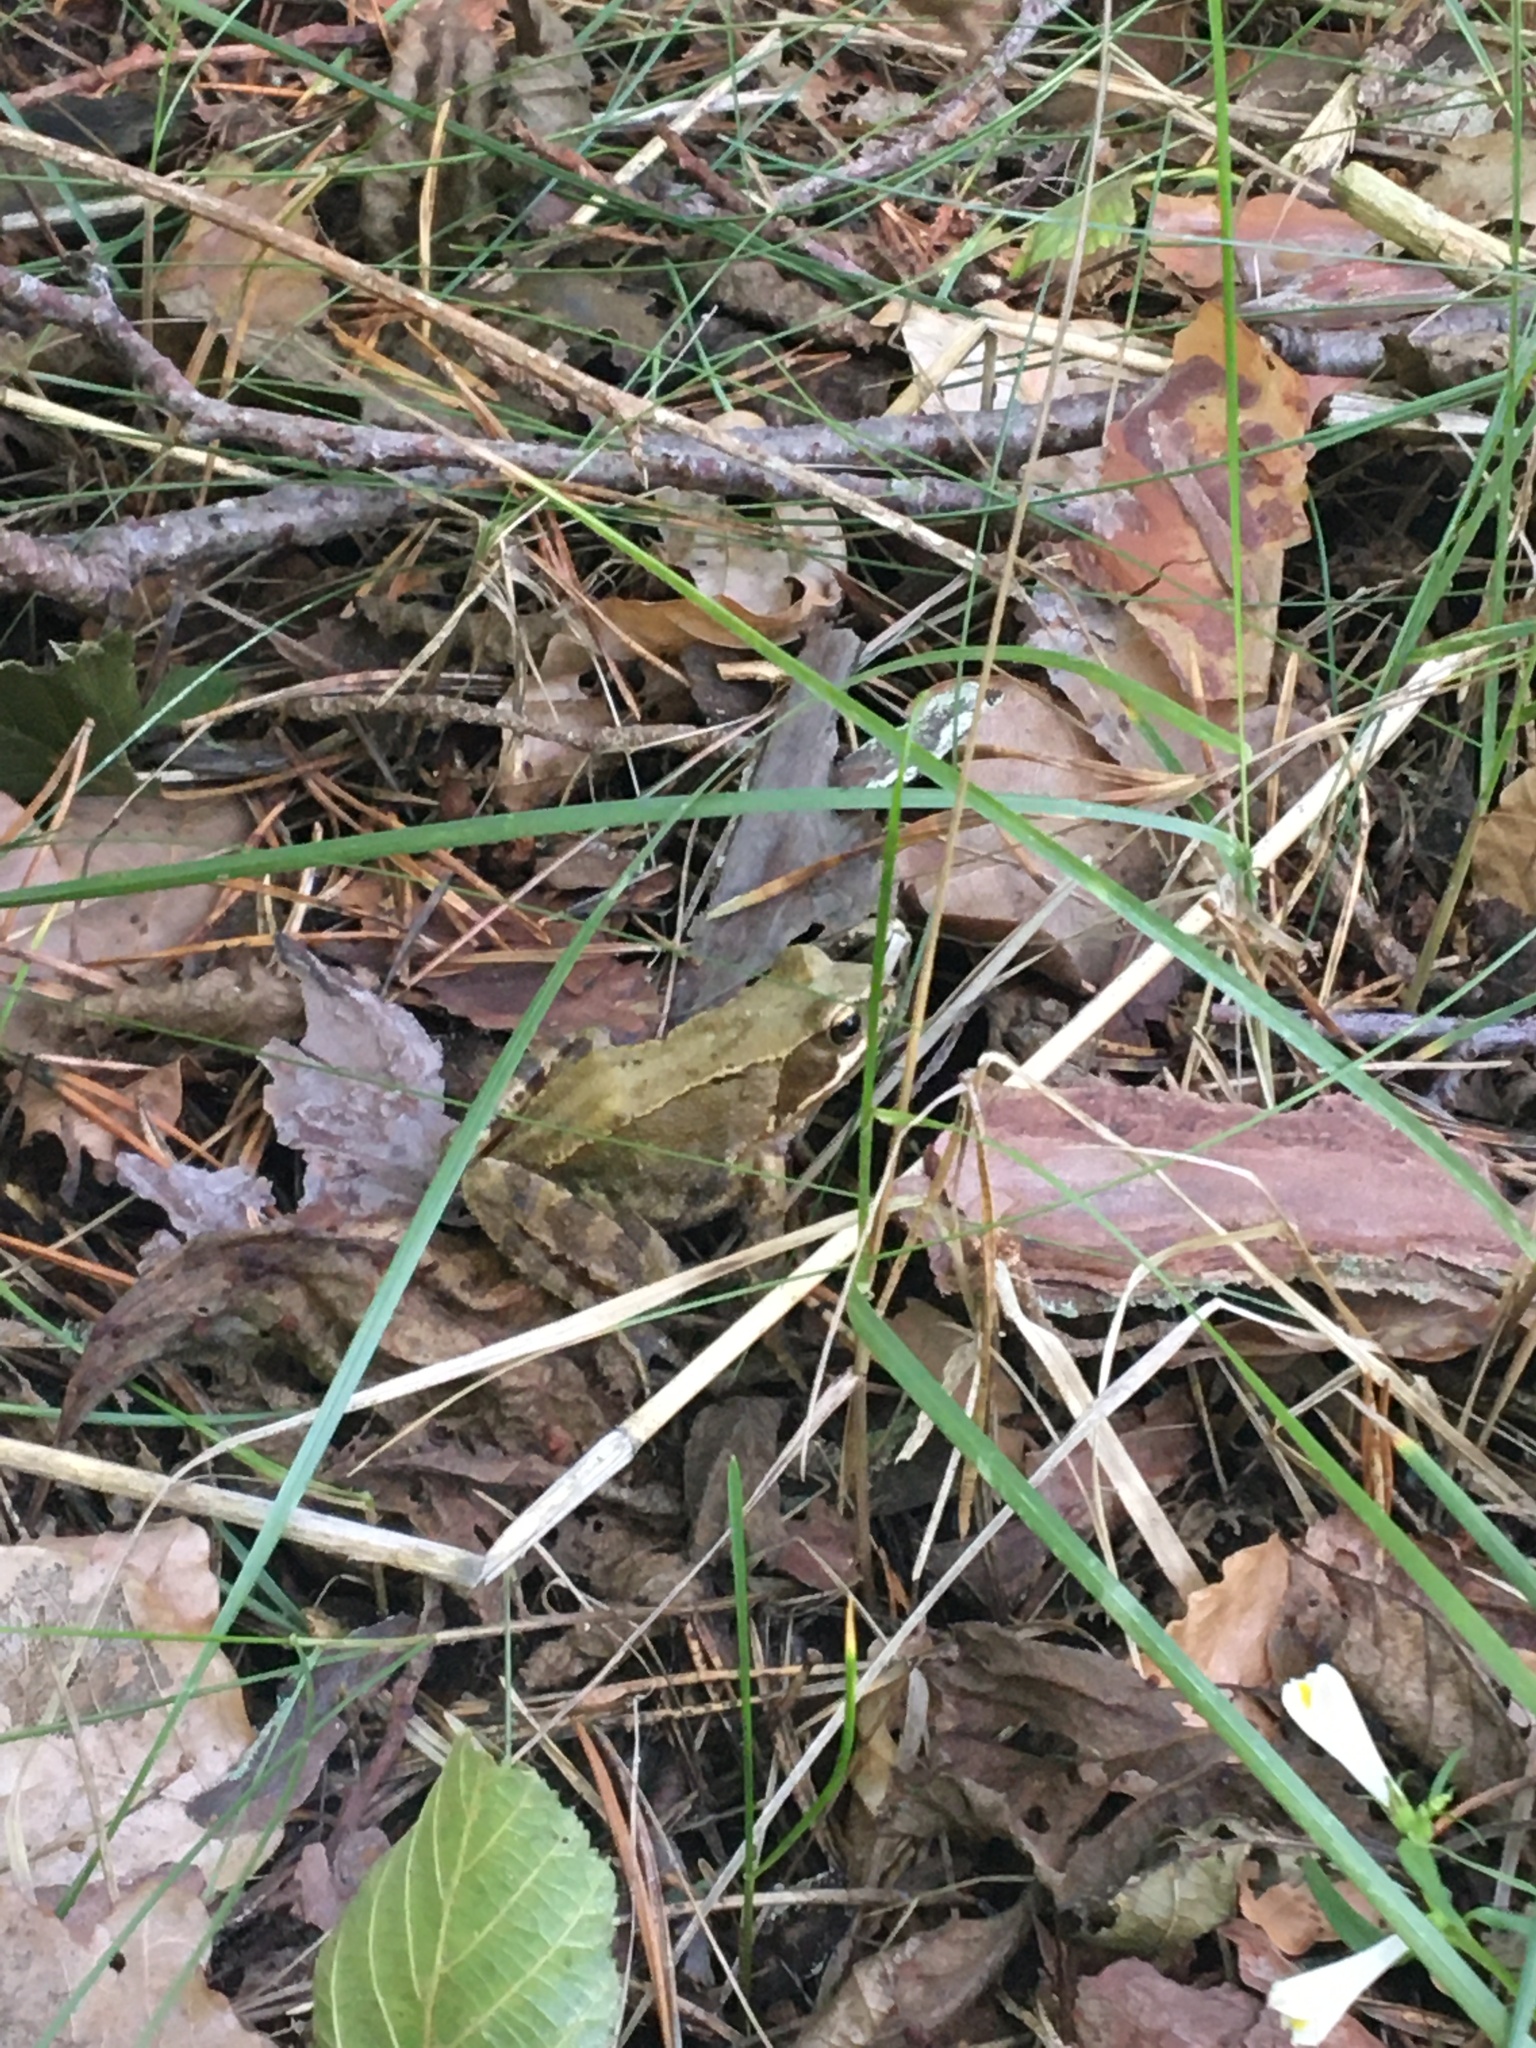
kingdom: Animalia
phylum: Chordata
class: Amphibia
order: Anura
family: Ranidae
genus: Rana
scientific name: Rana temporaria
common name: Common frog
